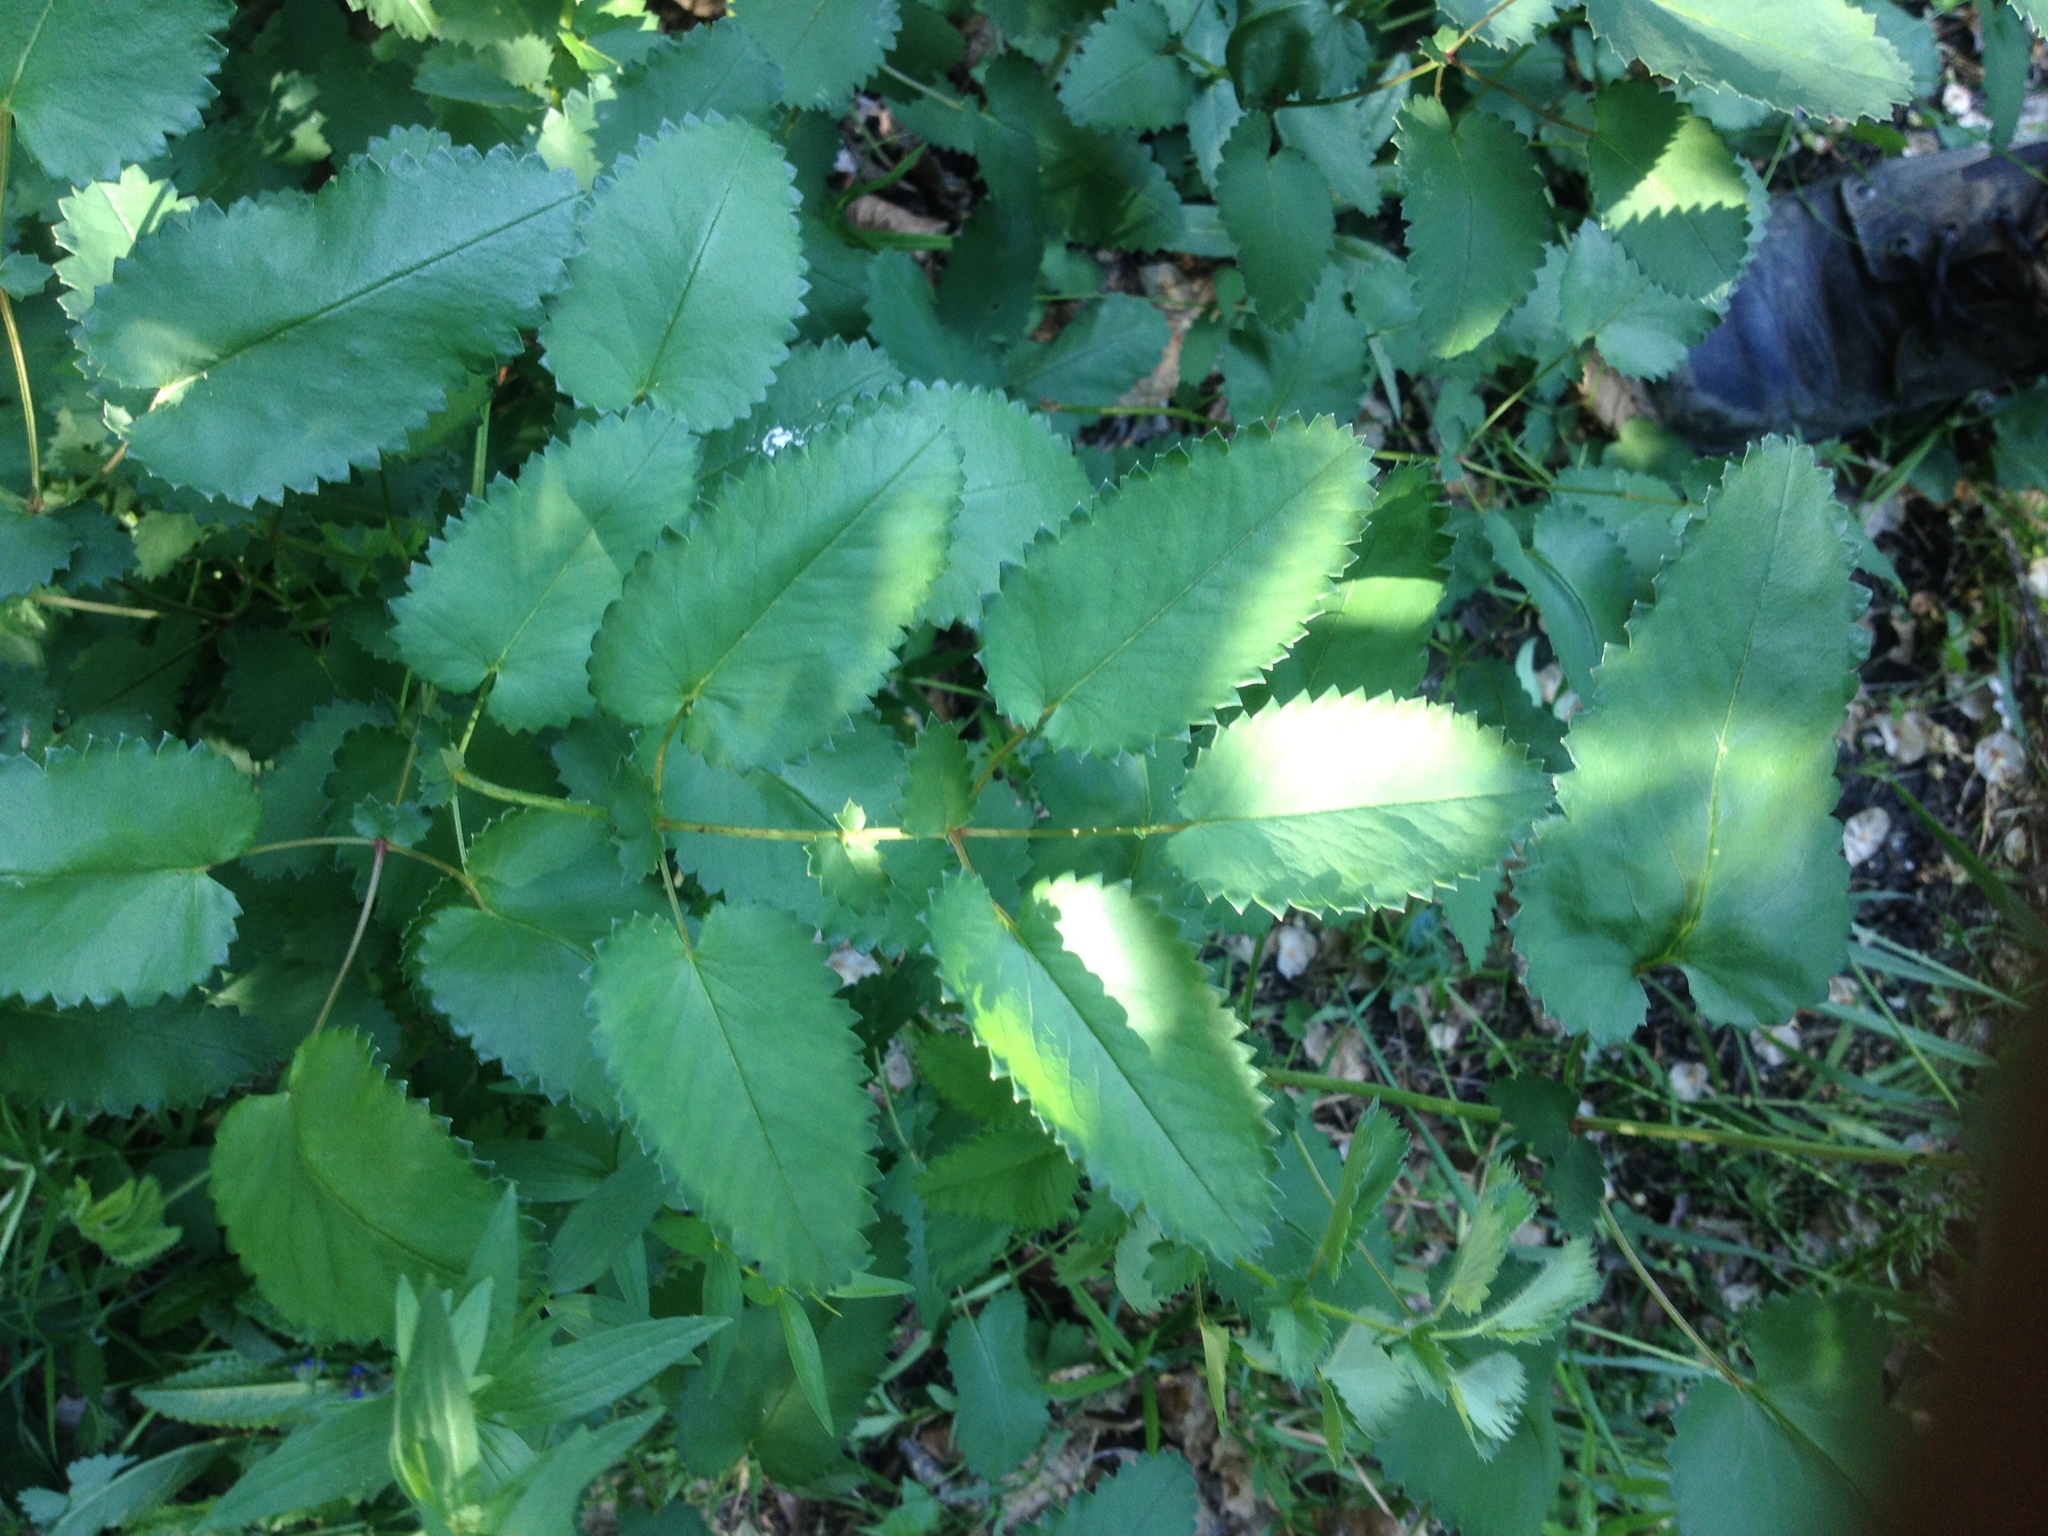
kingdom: Plantae
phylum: Tracheophyta
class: Magnoliopsida
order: Rosales
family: Rosaceae
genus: Sanguisorba
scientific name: Sanguisorba officinalis
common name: Great burnet
